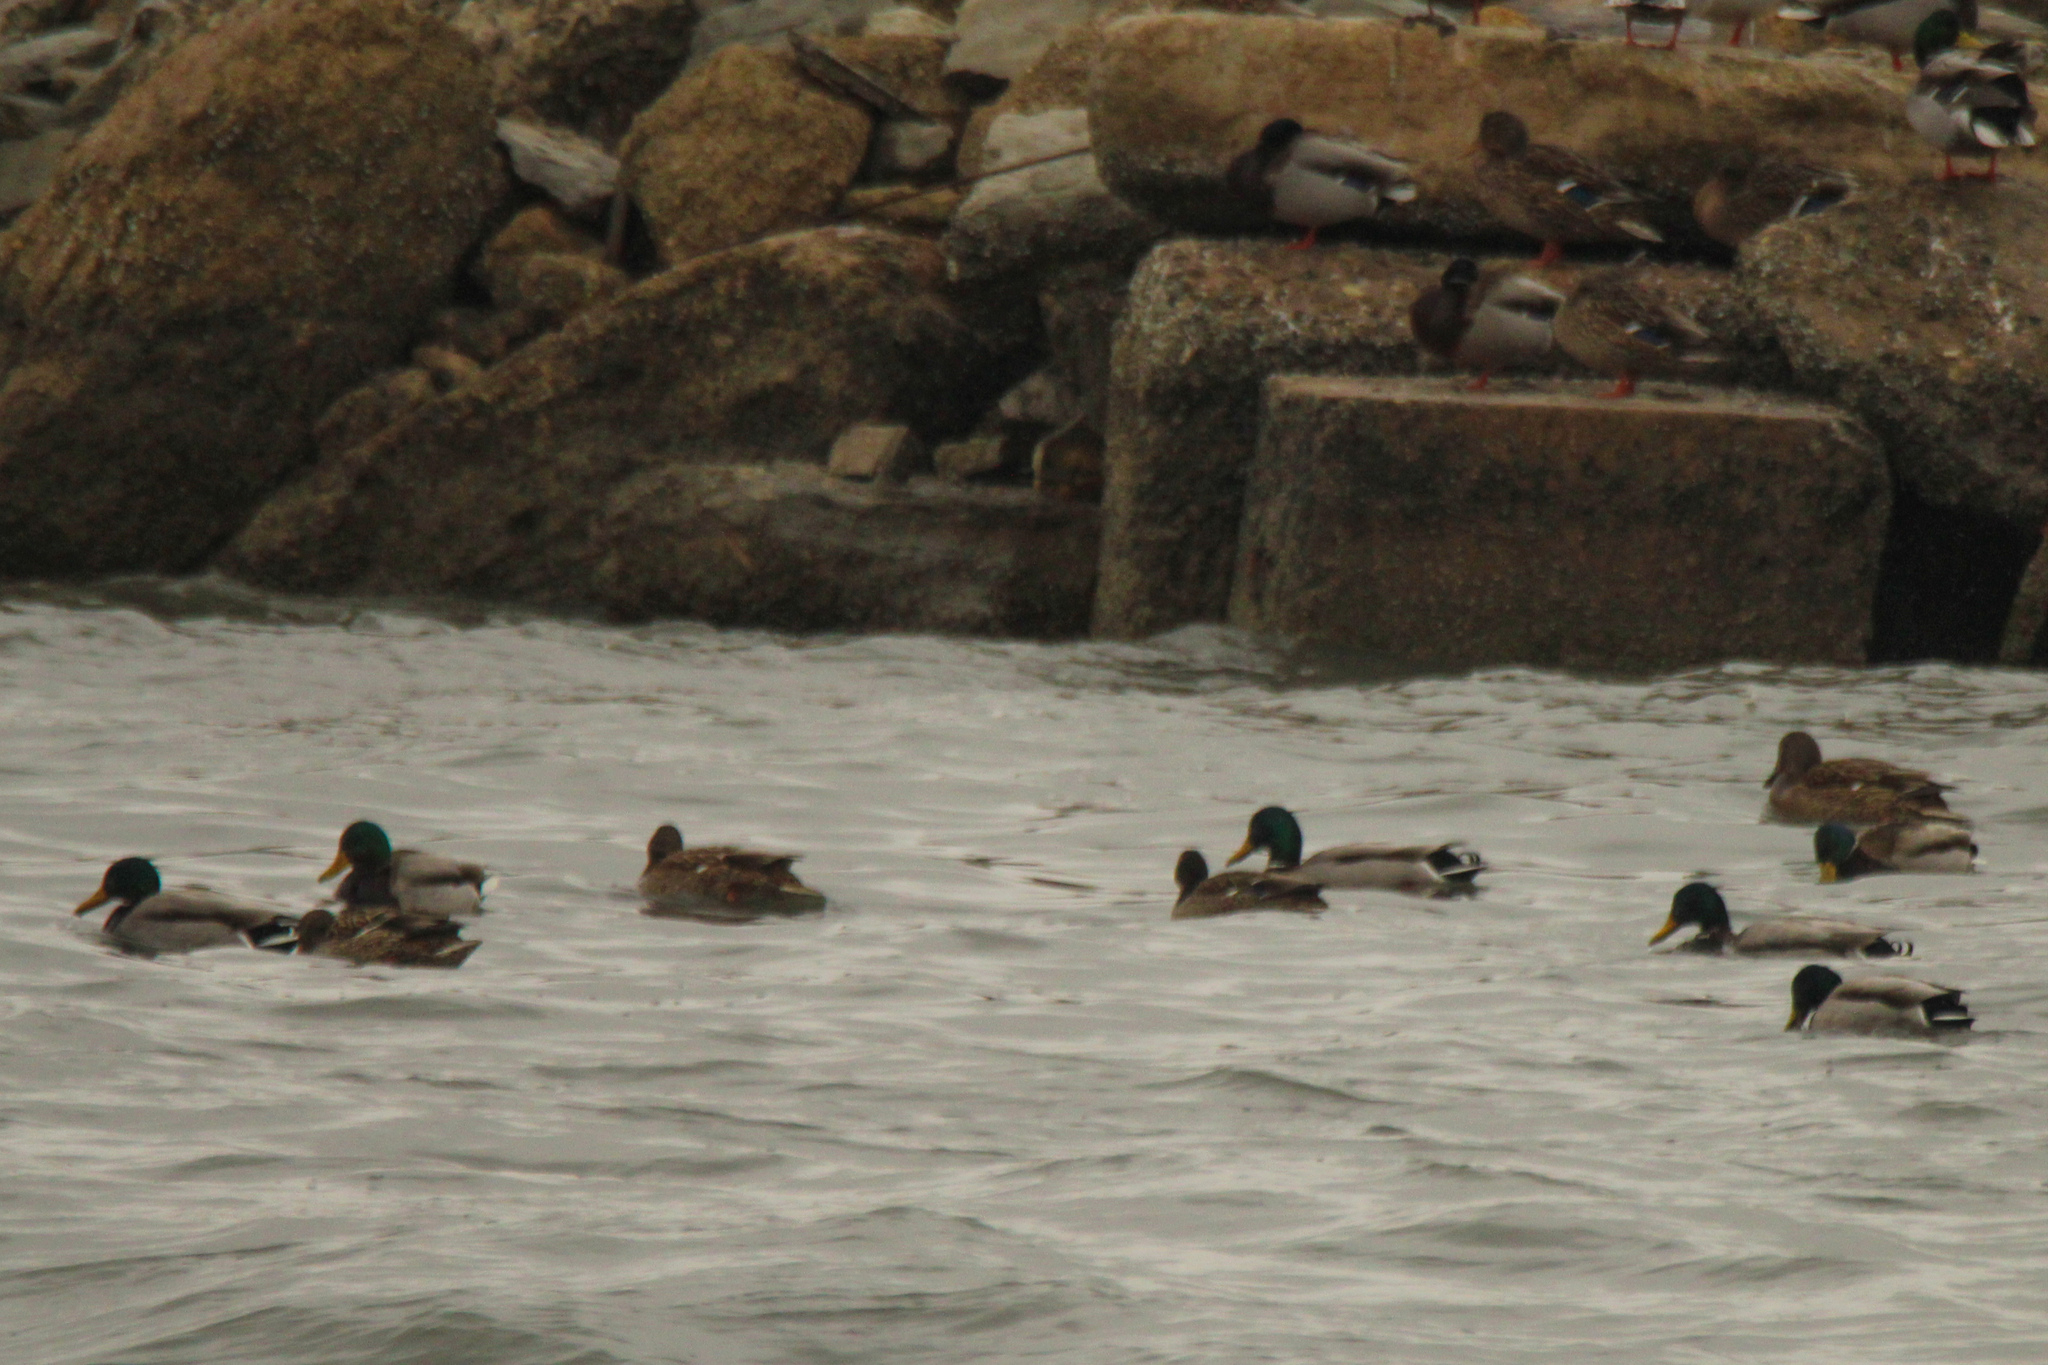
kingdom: Animalia
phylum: Chordata
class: Aves
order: Anseriformes
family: Anatidae
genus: Anas
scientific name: Anas platyrhynchos
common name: Mallard
